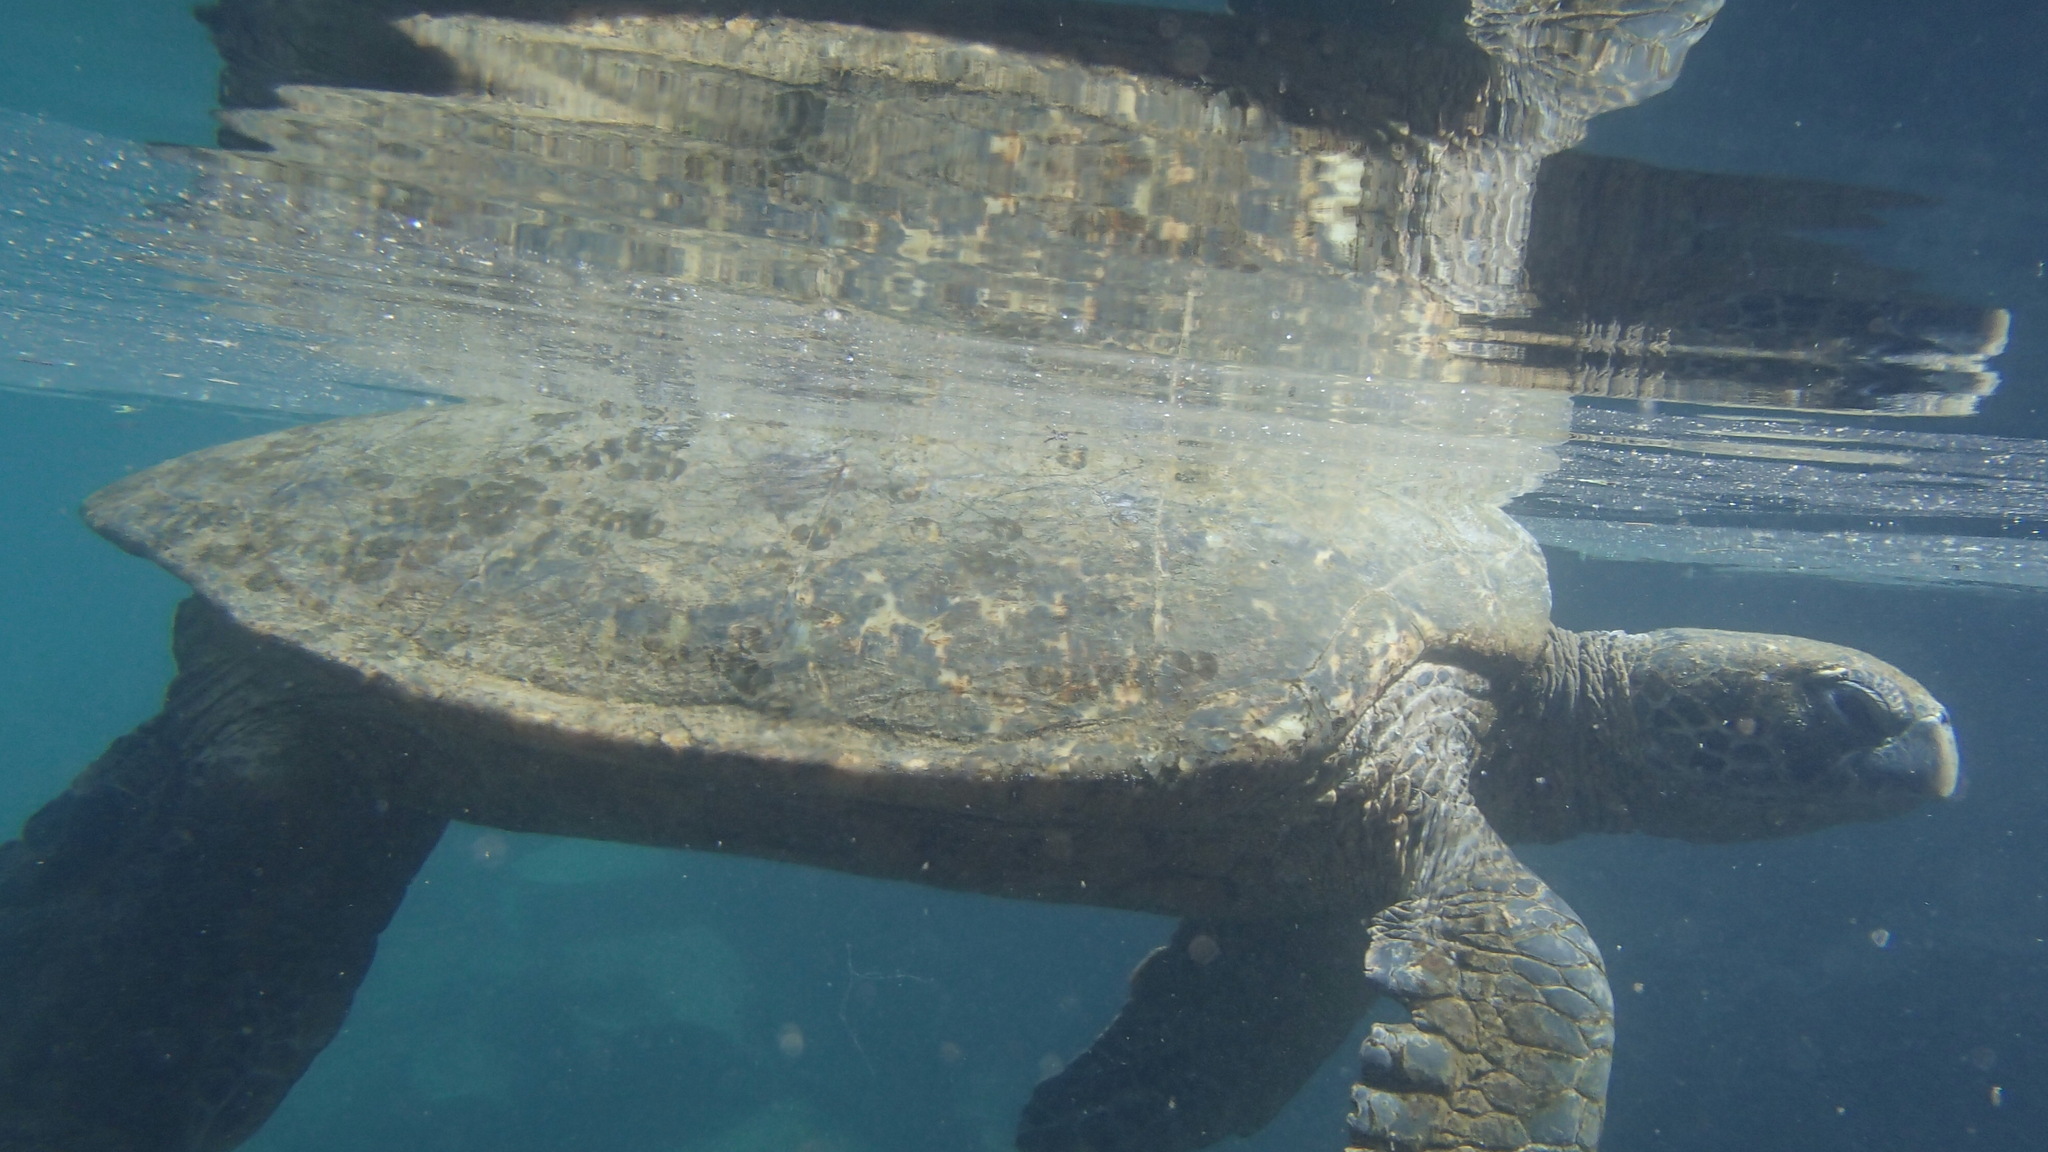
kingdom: Animalia
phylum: Chordata
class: Testudines
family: Cheloniidae
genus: Chelonia
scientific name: Chelonia mydas
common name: Green turtle
